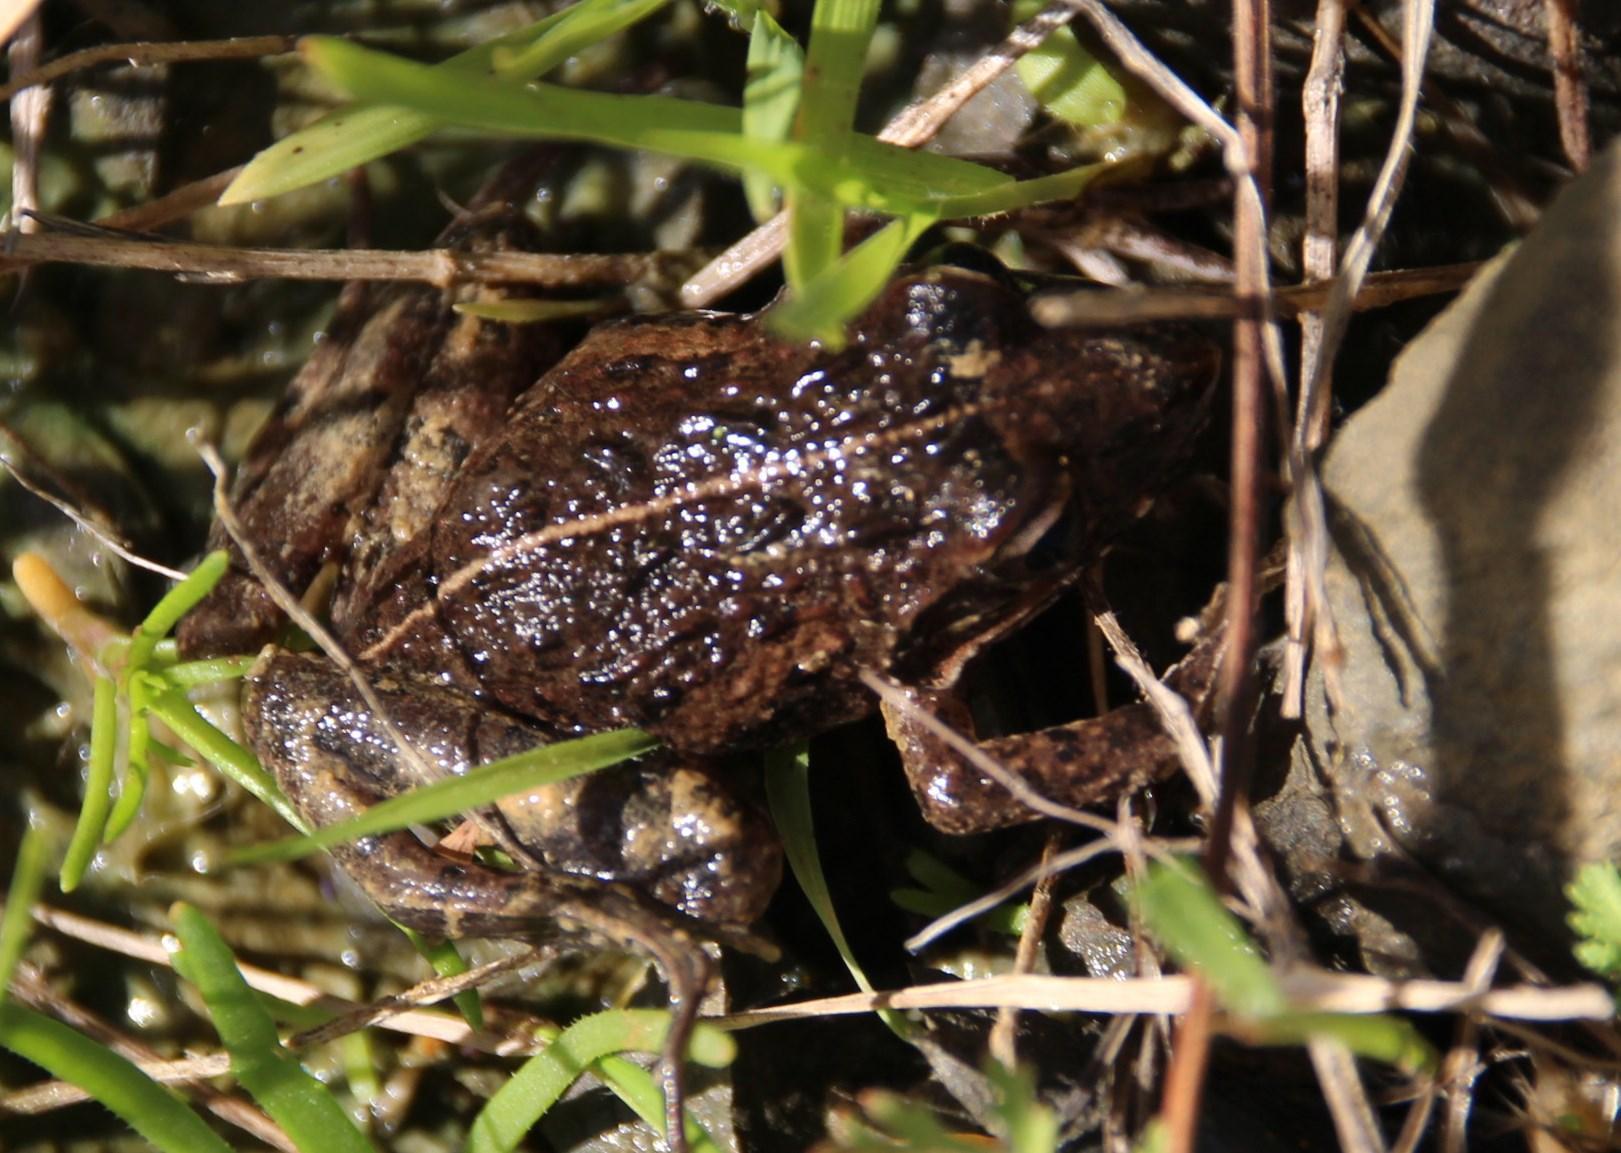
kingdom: Animalia
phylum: Chordata
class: Amphibia
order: Anura
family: Pyxicephalidae
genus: Strongylopus
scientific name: Strongylopus grayii
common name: Gray's stream frog
